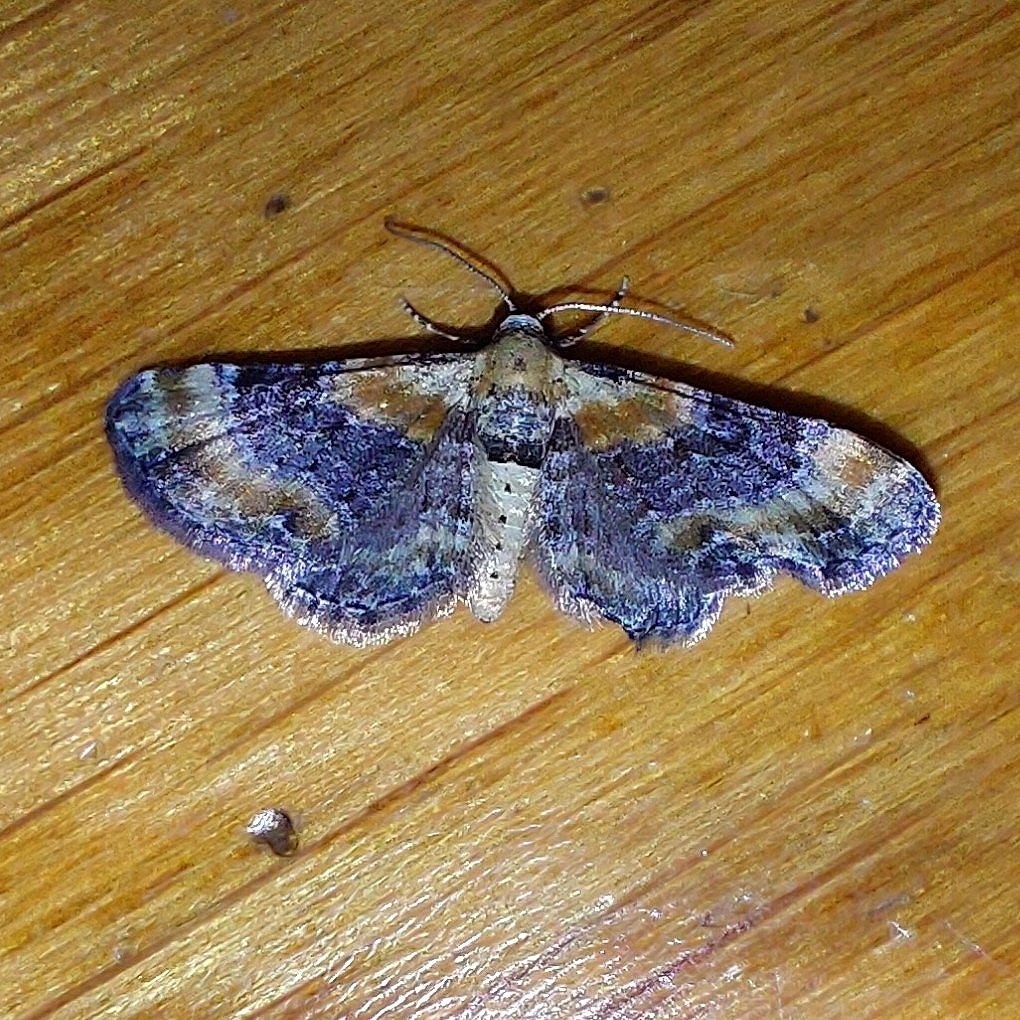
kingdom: Animalia
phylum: Arthropoda
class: Insecta
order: Lepidoptera
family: Geometridae
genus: Eupithecia
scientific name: Eupithecia linariata
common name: Toadflax pug
